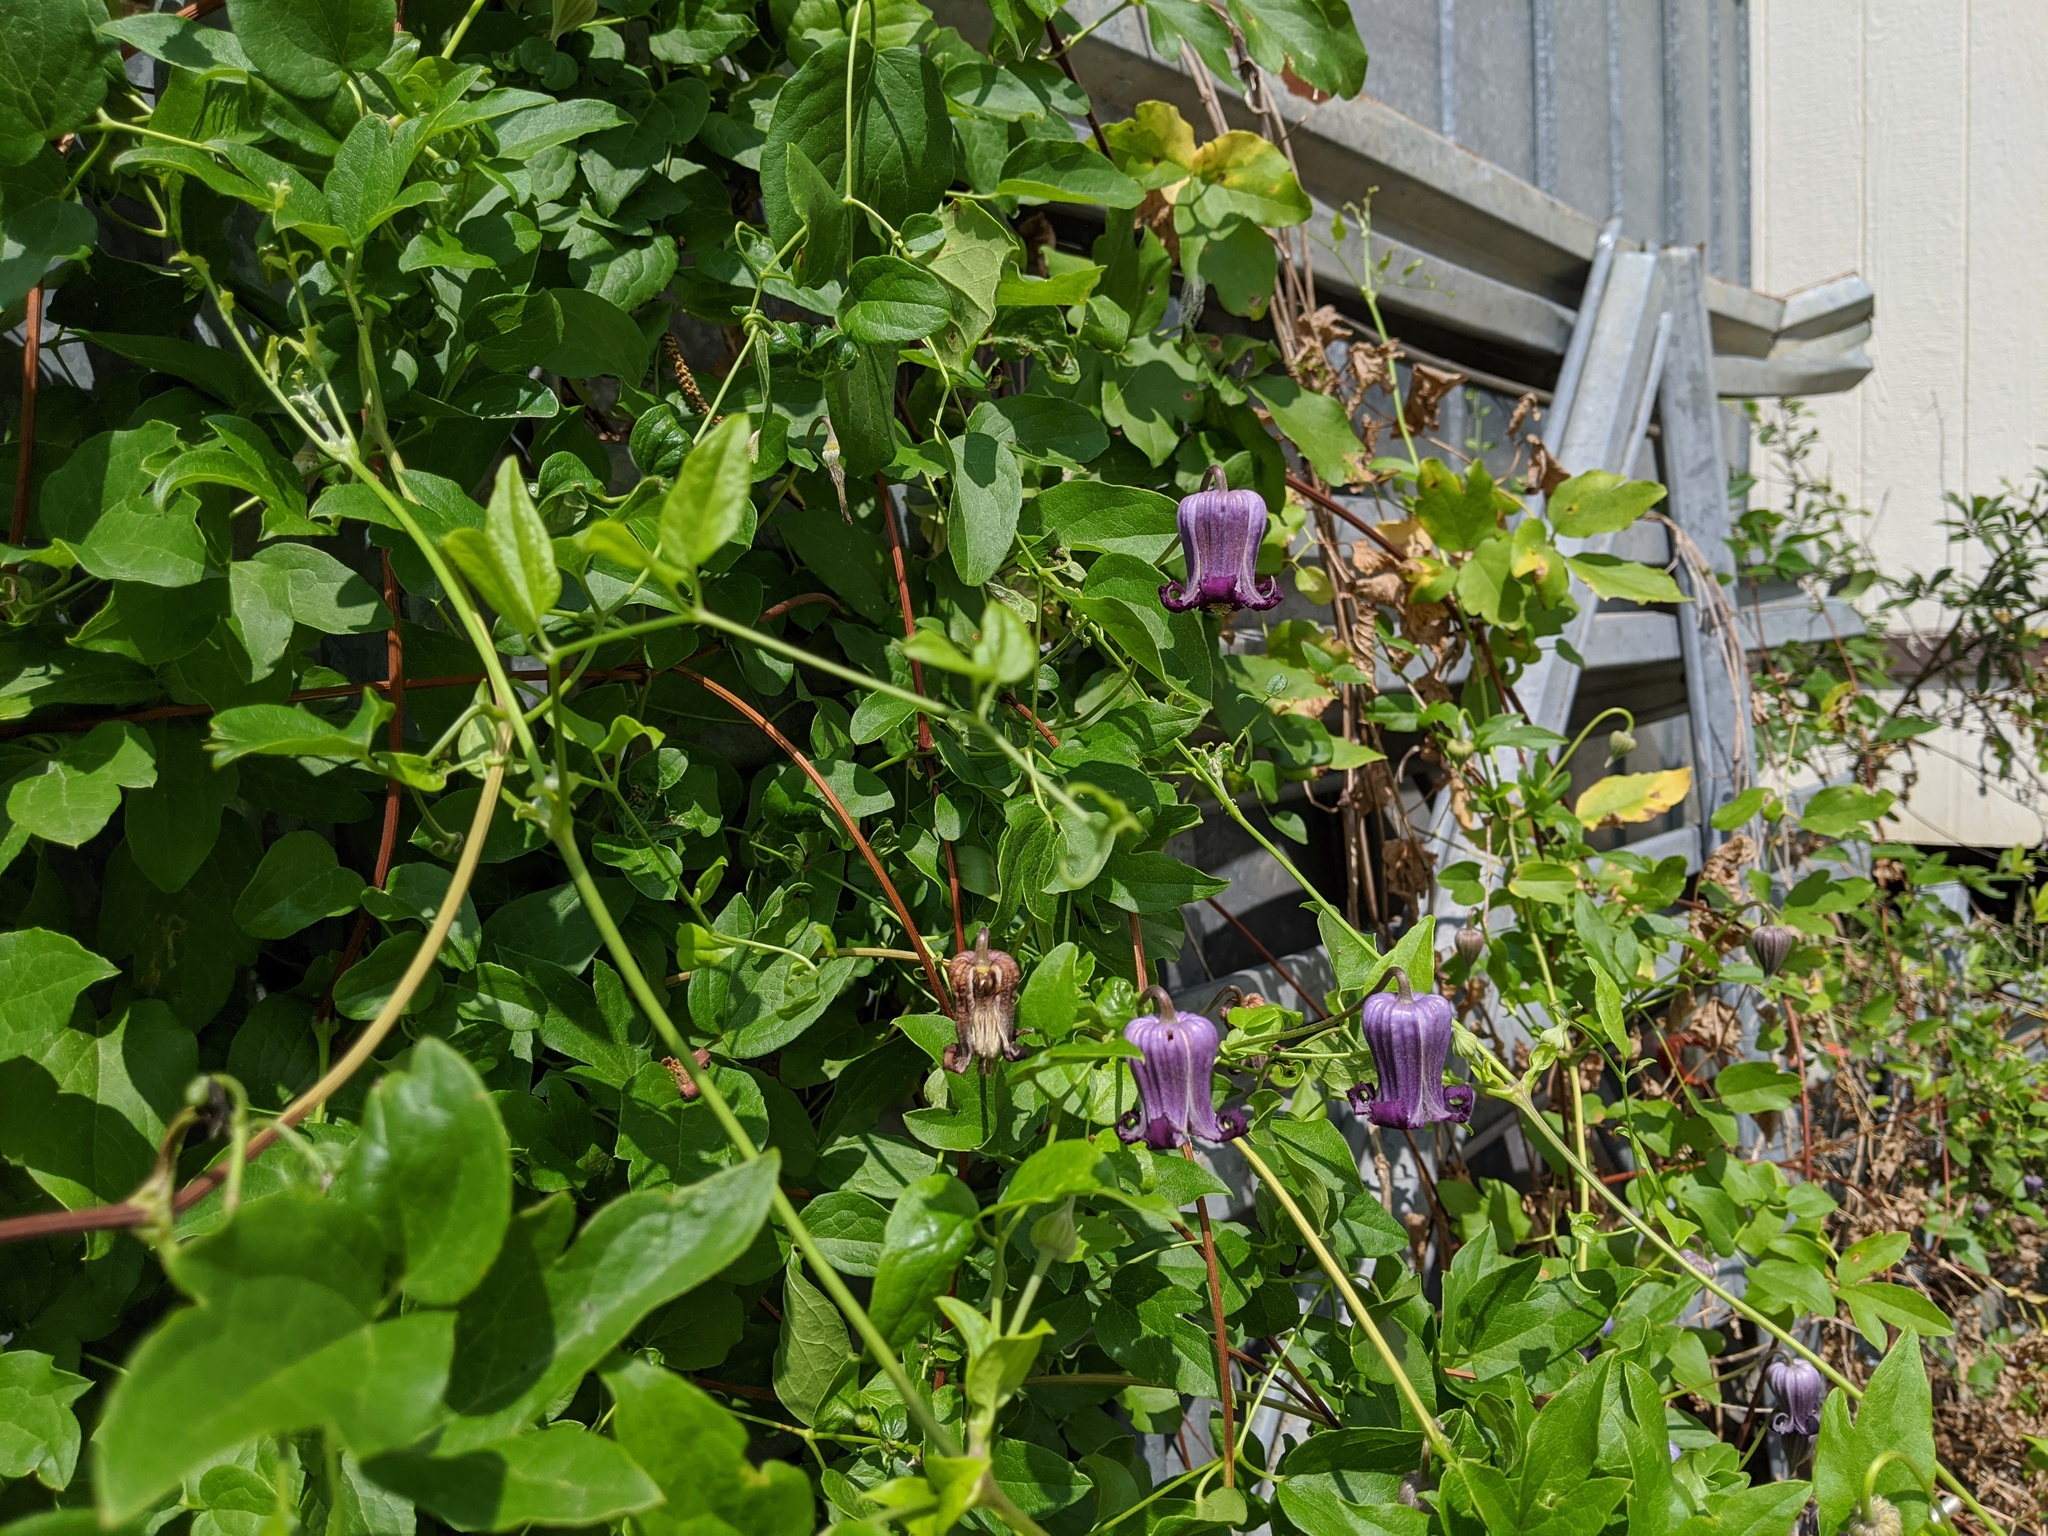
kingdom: Plantae
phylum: Tracheophyta
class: Magnoliopsida
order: Ranunculales
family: Ranunculaceae
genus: Clematis
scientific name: Clematis pitcheri
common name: Bellflower clematis
